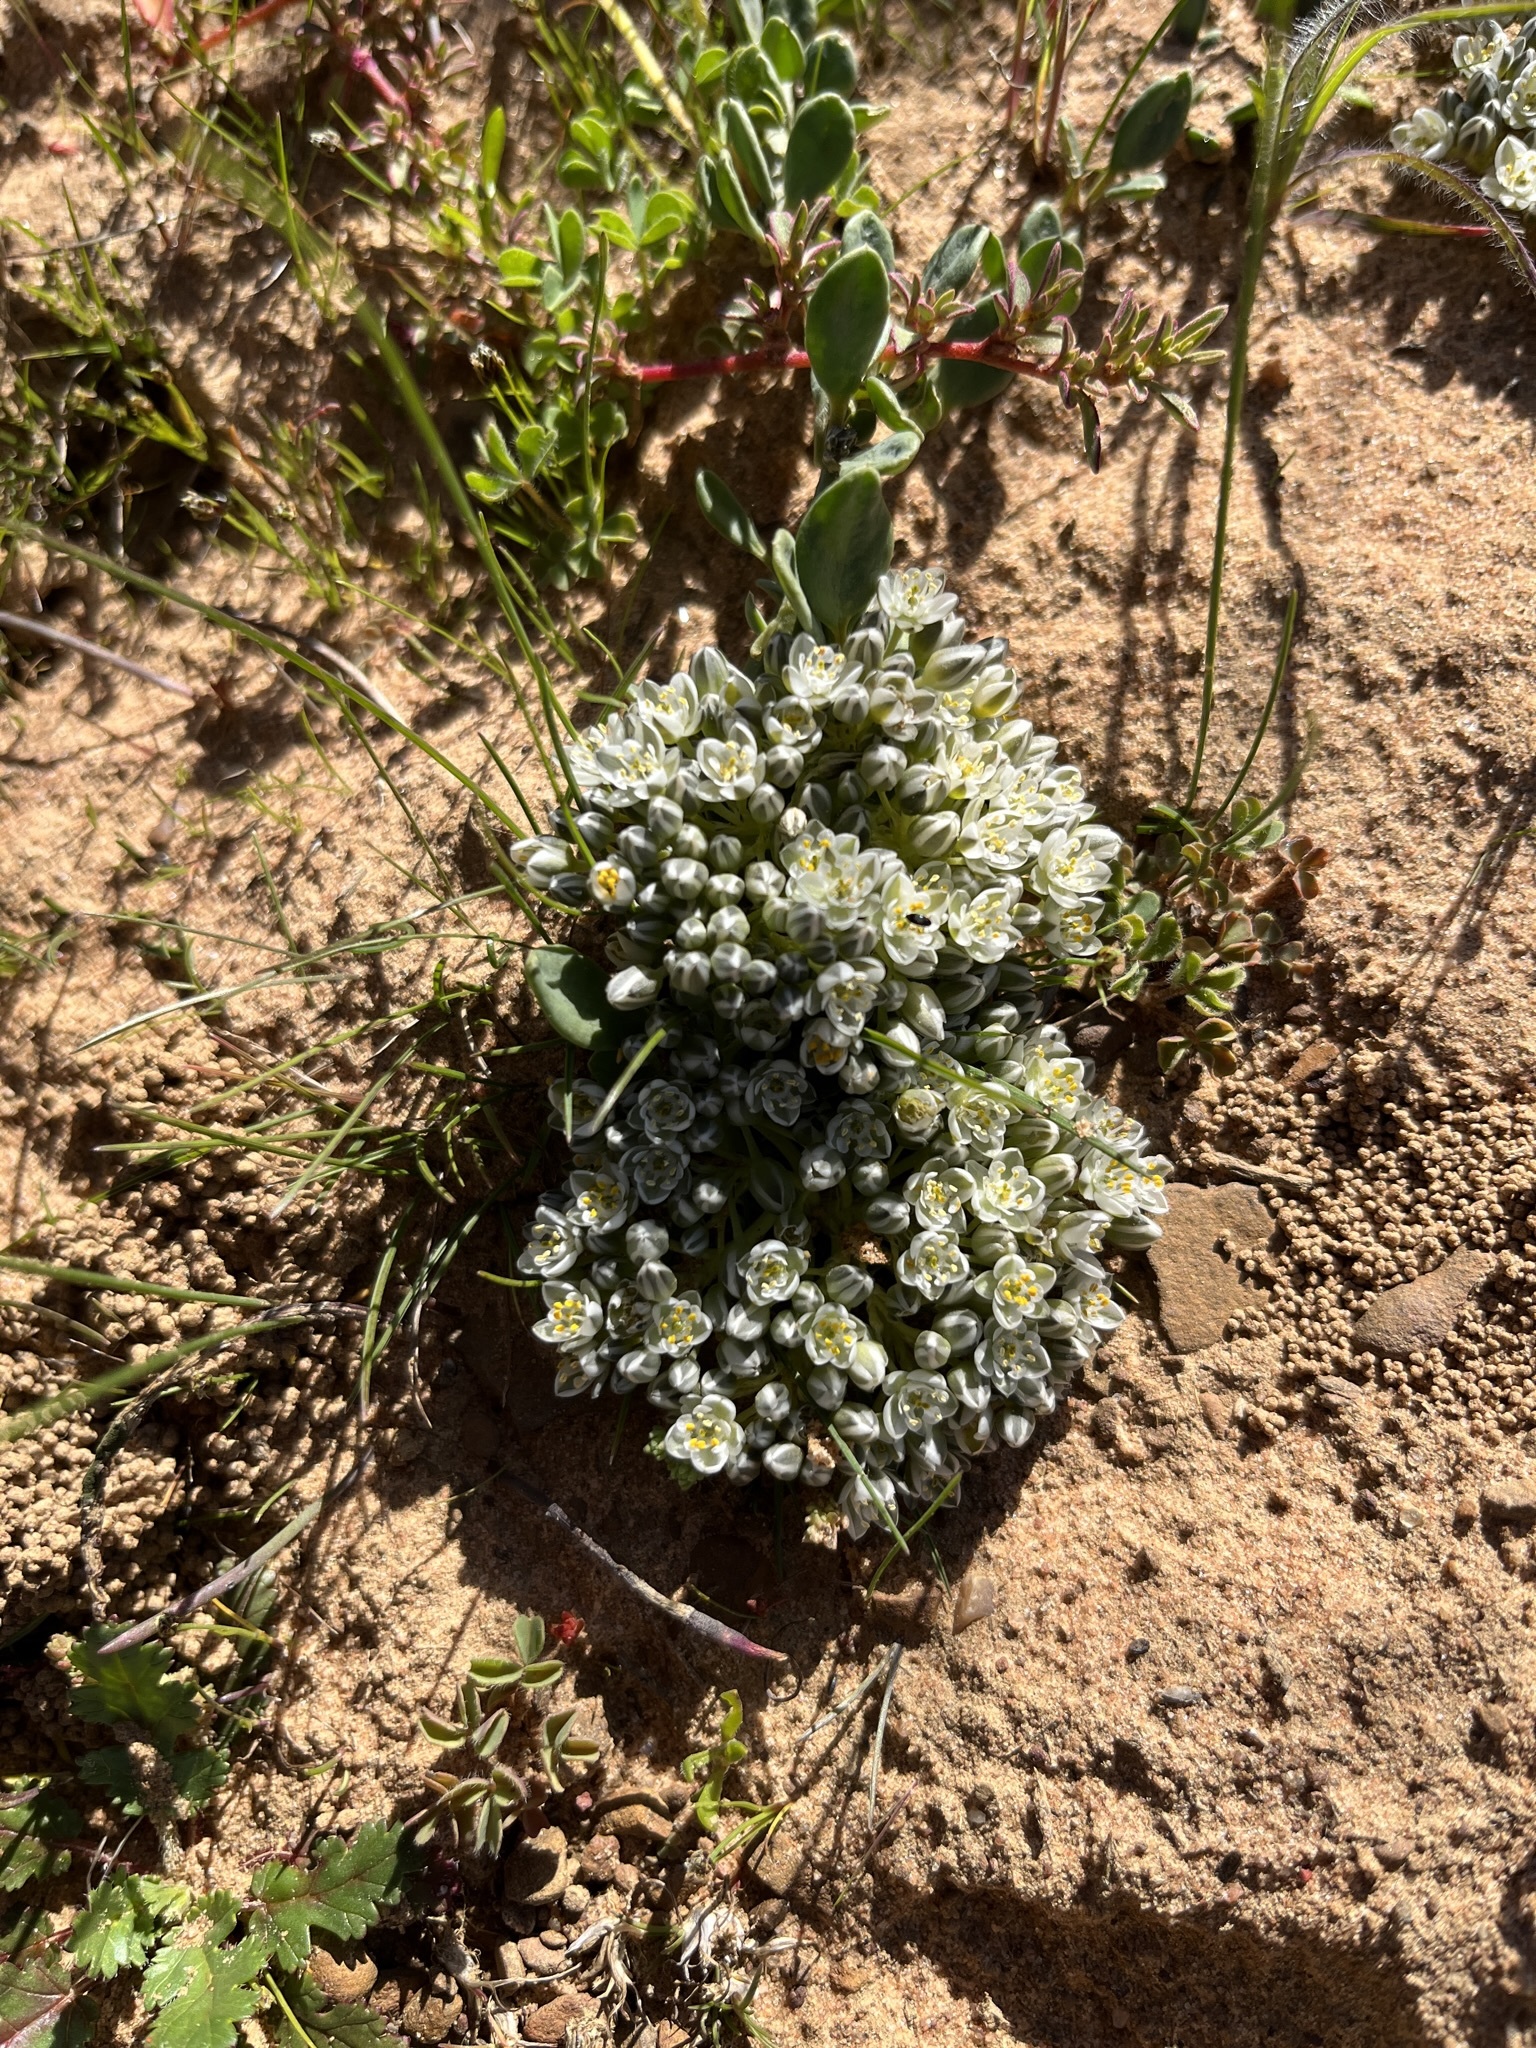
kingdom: Plantae
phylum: Tracheophyta
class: Magnoliopsida
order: Caryophyllales
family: Limeaceae
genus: Limeum
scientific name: Limeum africanum
